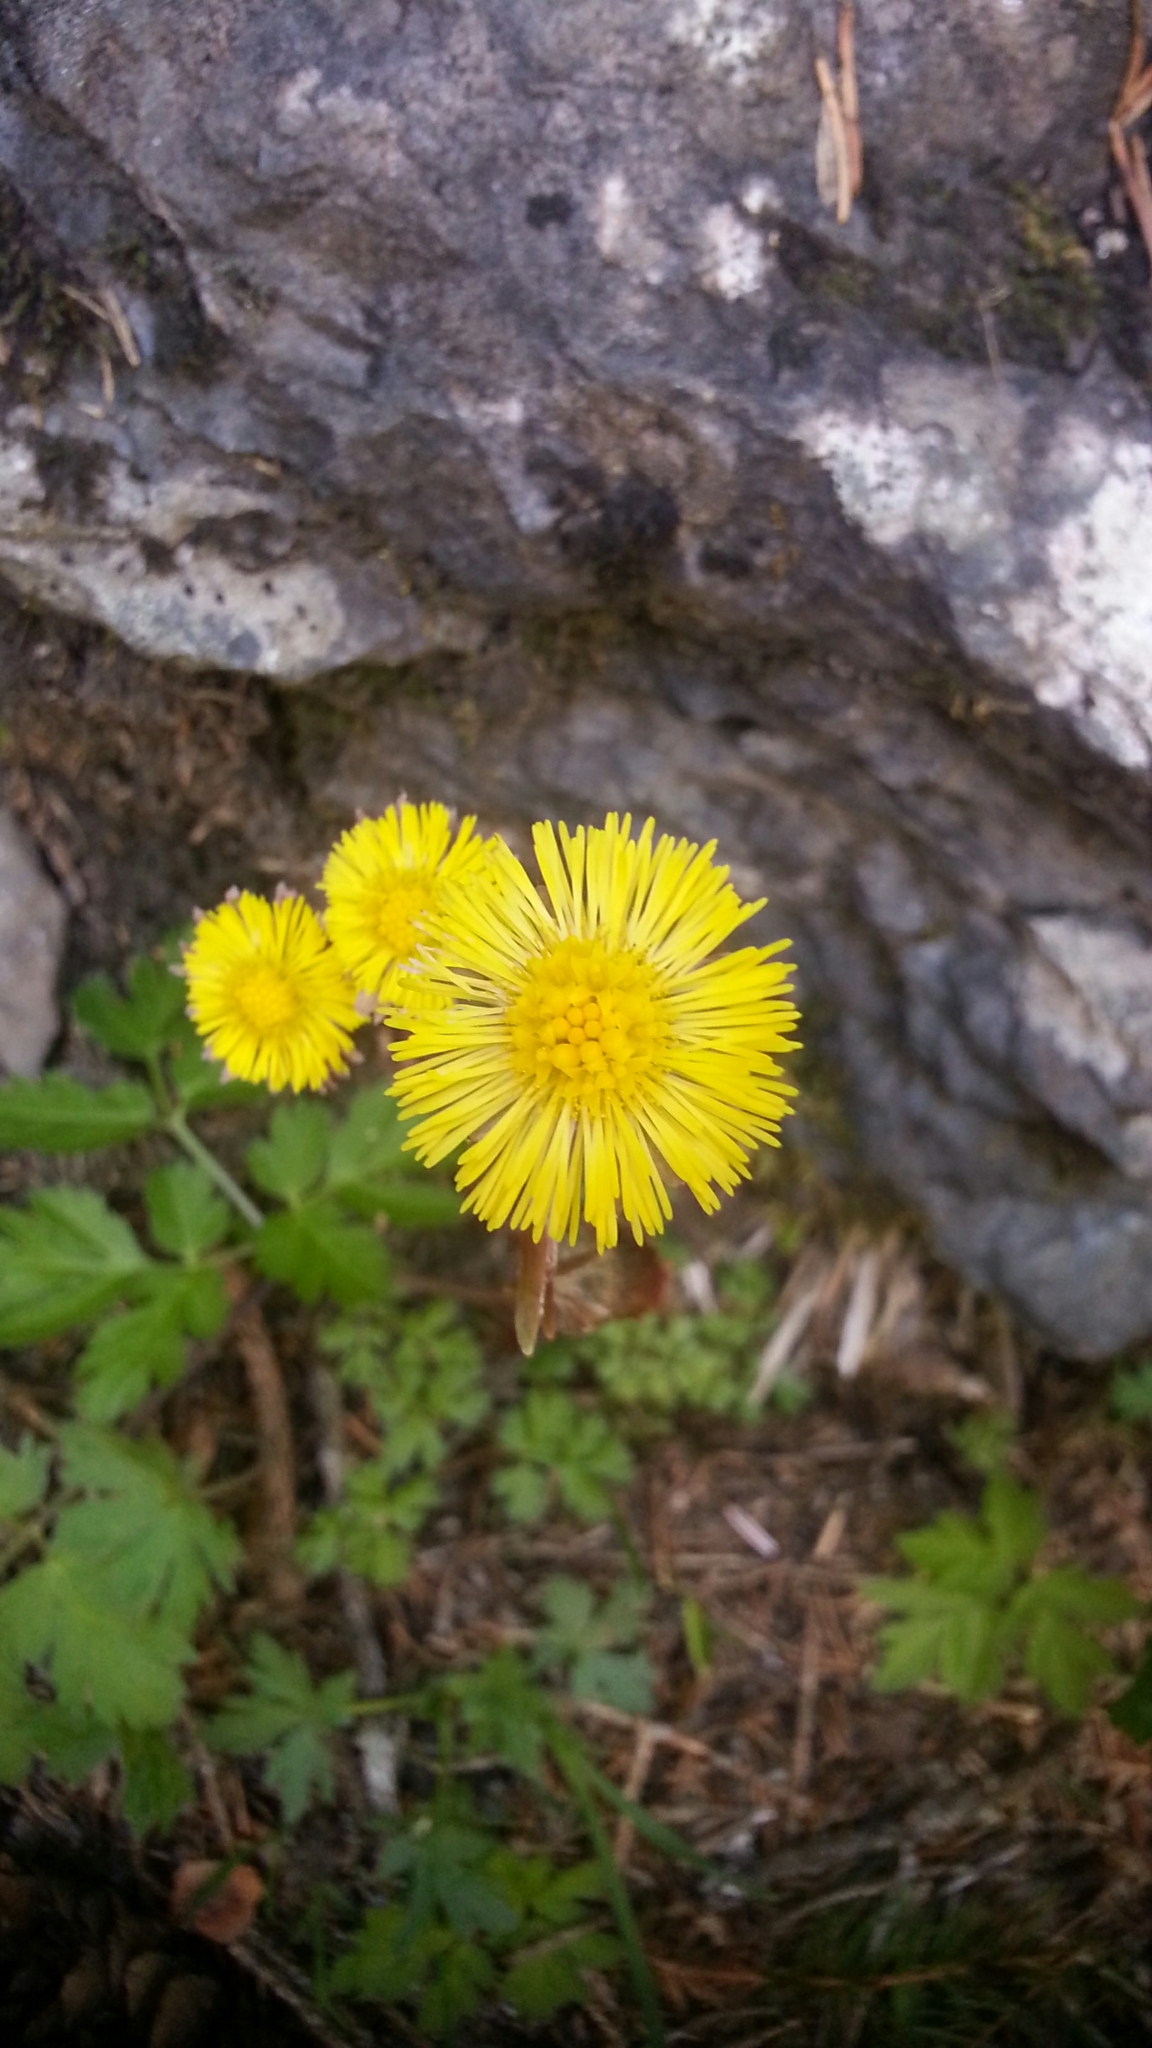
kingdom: Plantae
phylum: Tracheophyta
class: Magnoliopsida
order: Asterales
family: Asteraceae
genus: Tussilago
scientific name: Tussilago farfara
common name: Coltsfoot
